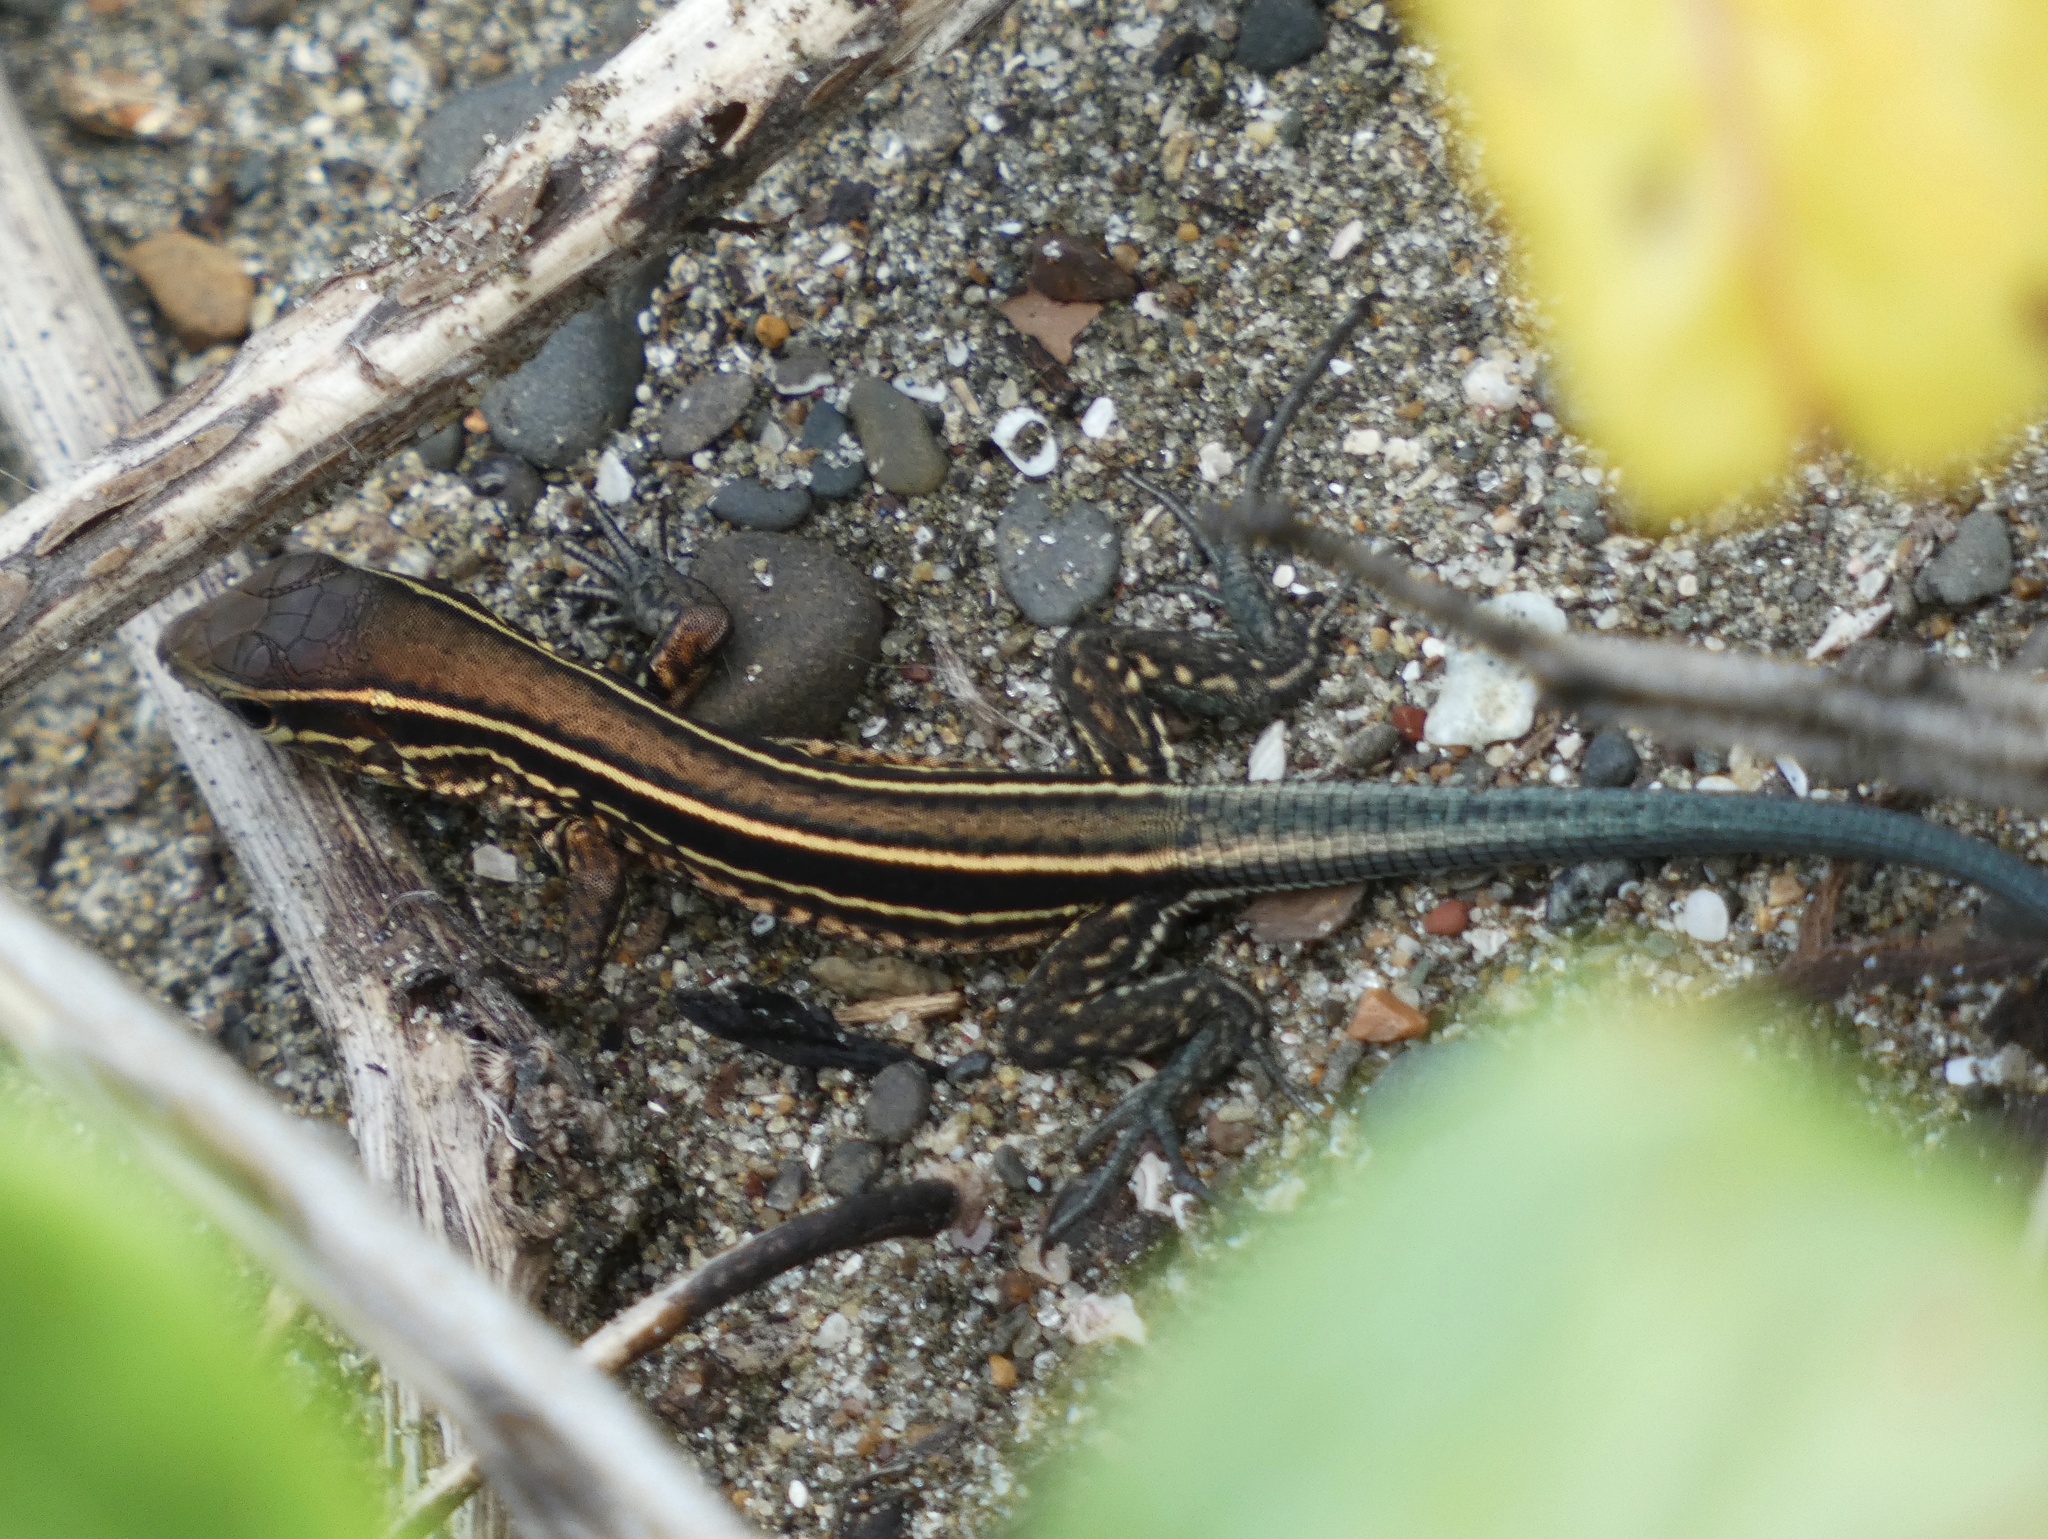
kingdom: Animalia
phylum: Chordata
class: Squamata
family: Teiidae
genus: Holcosus
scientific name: Holcosus quadrilineatus
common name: Four-lined ameiva
